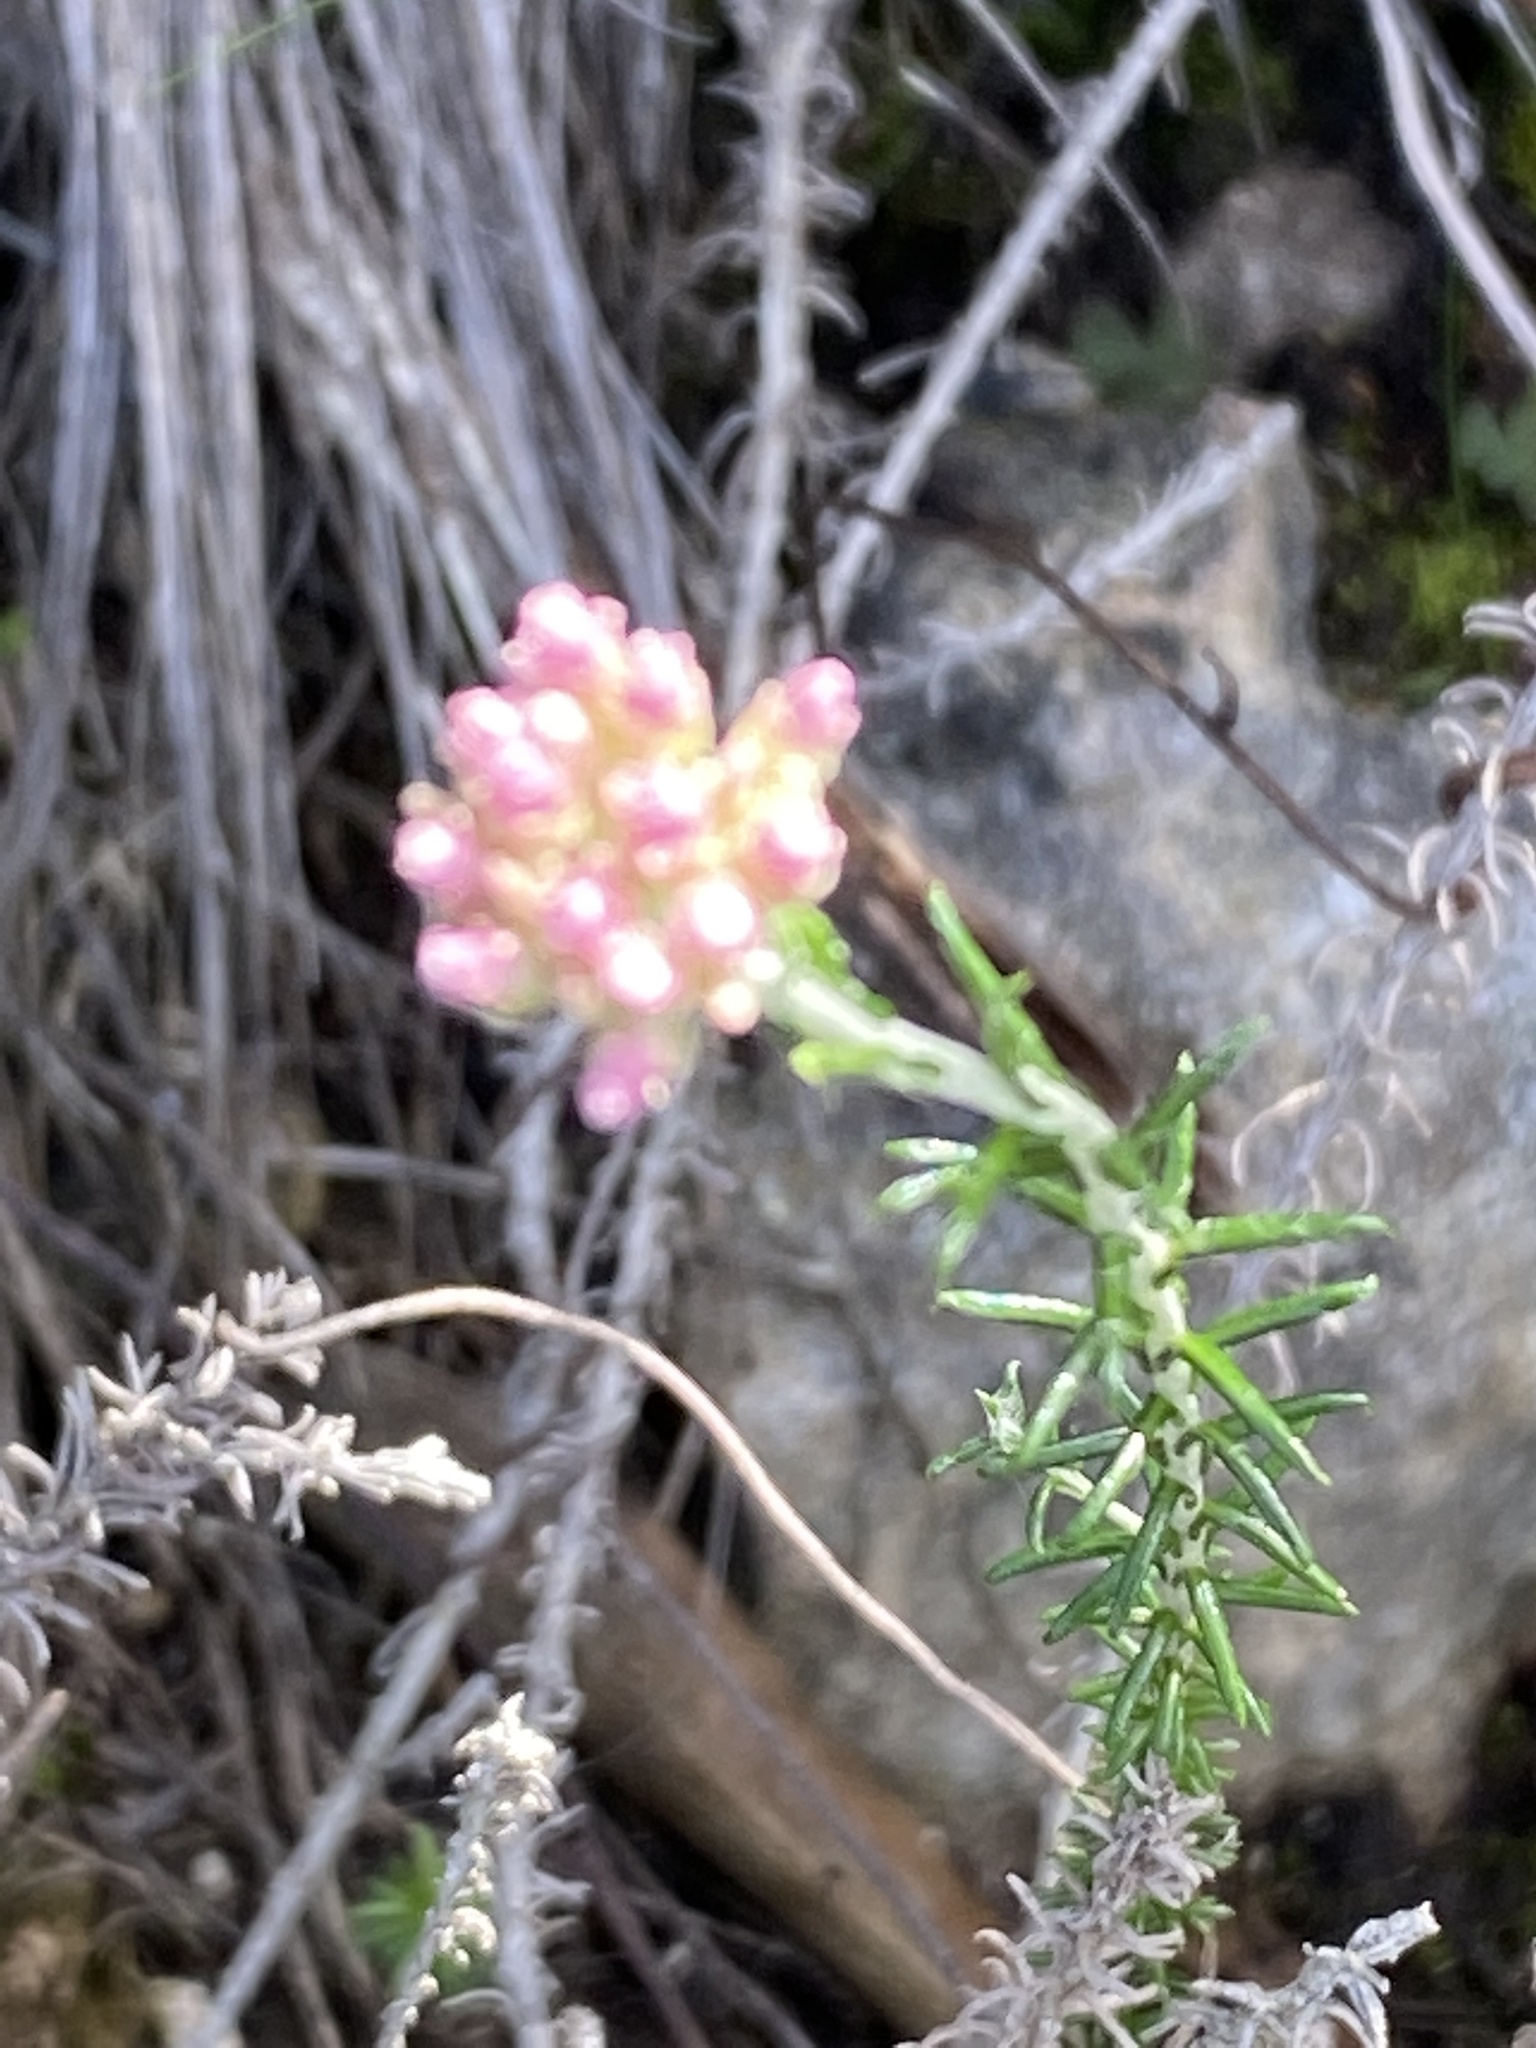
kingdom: Plantae
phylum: Tracheophyta
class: Magnoliopsida
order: Asterales
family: Asteraceae
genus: Helichrysum
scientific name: Helichrysum teretifolium
